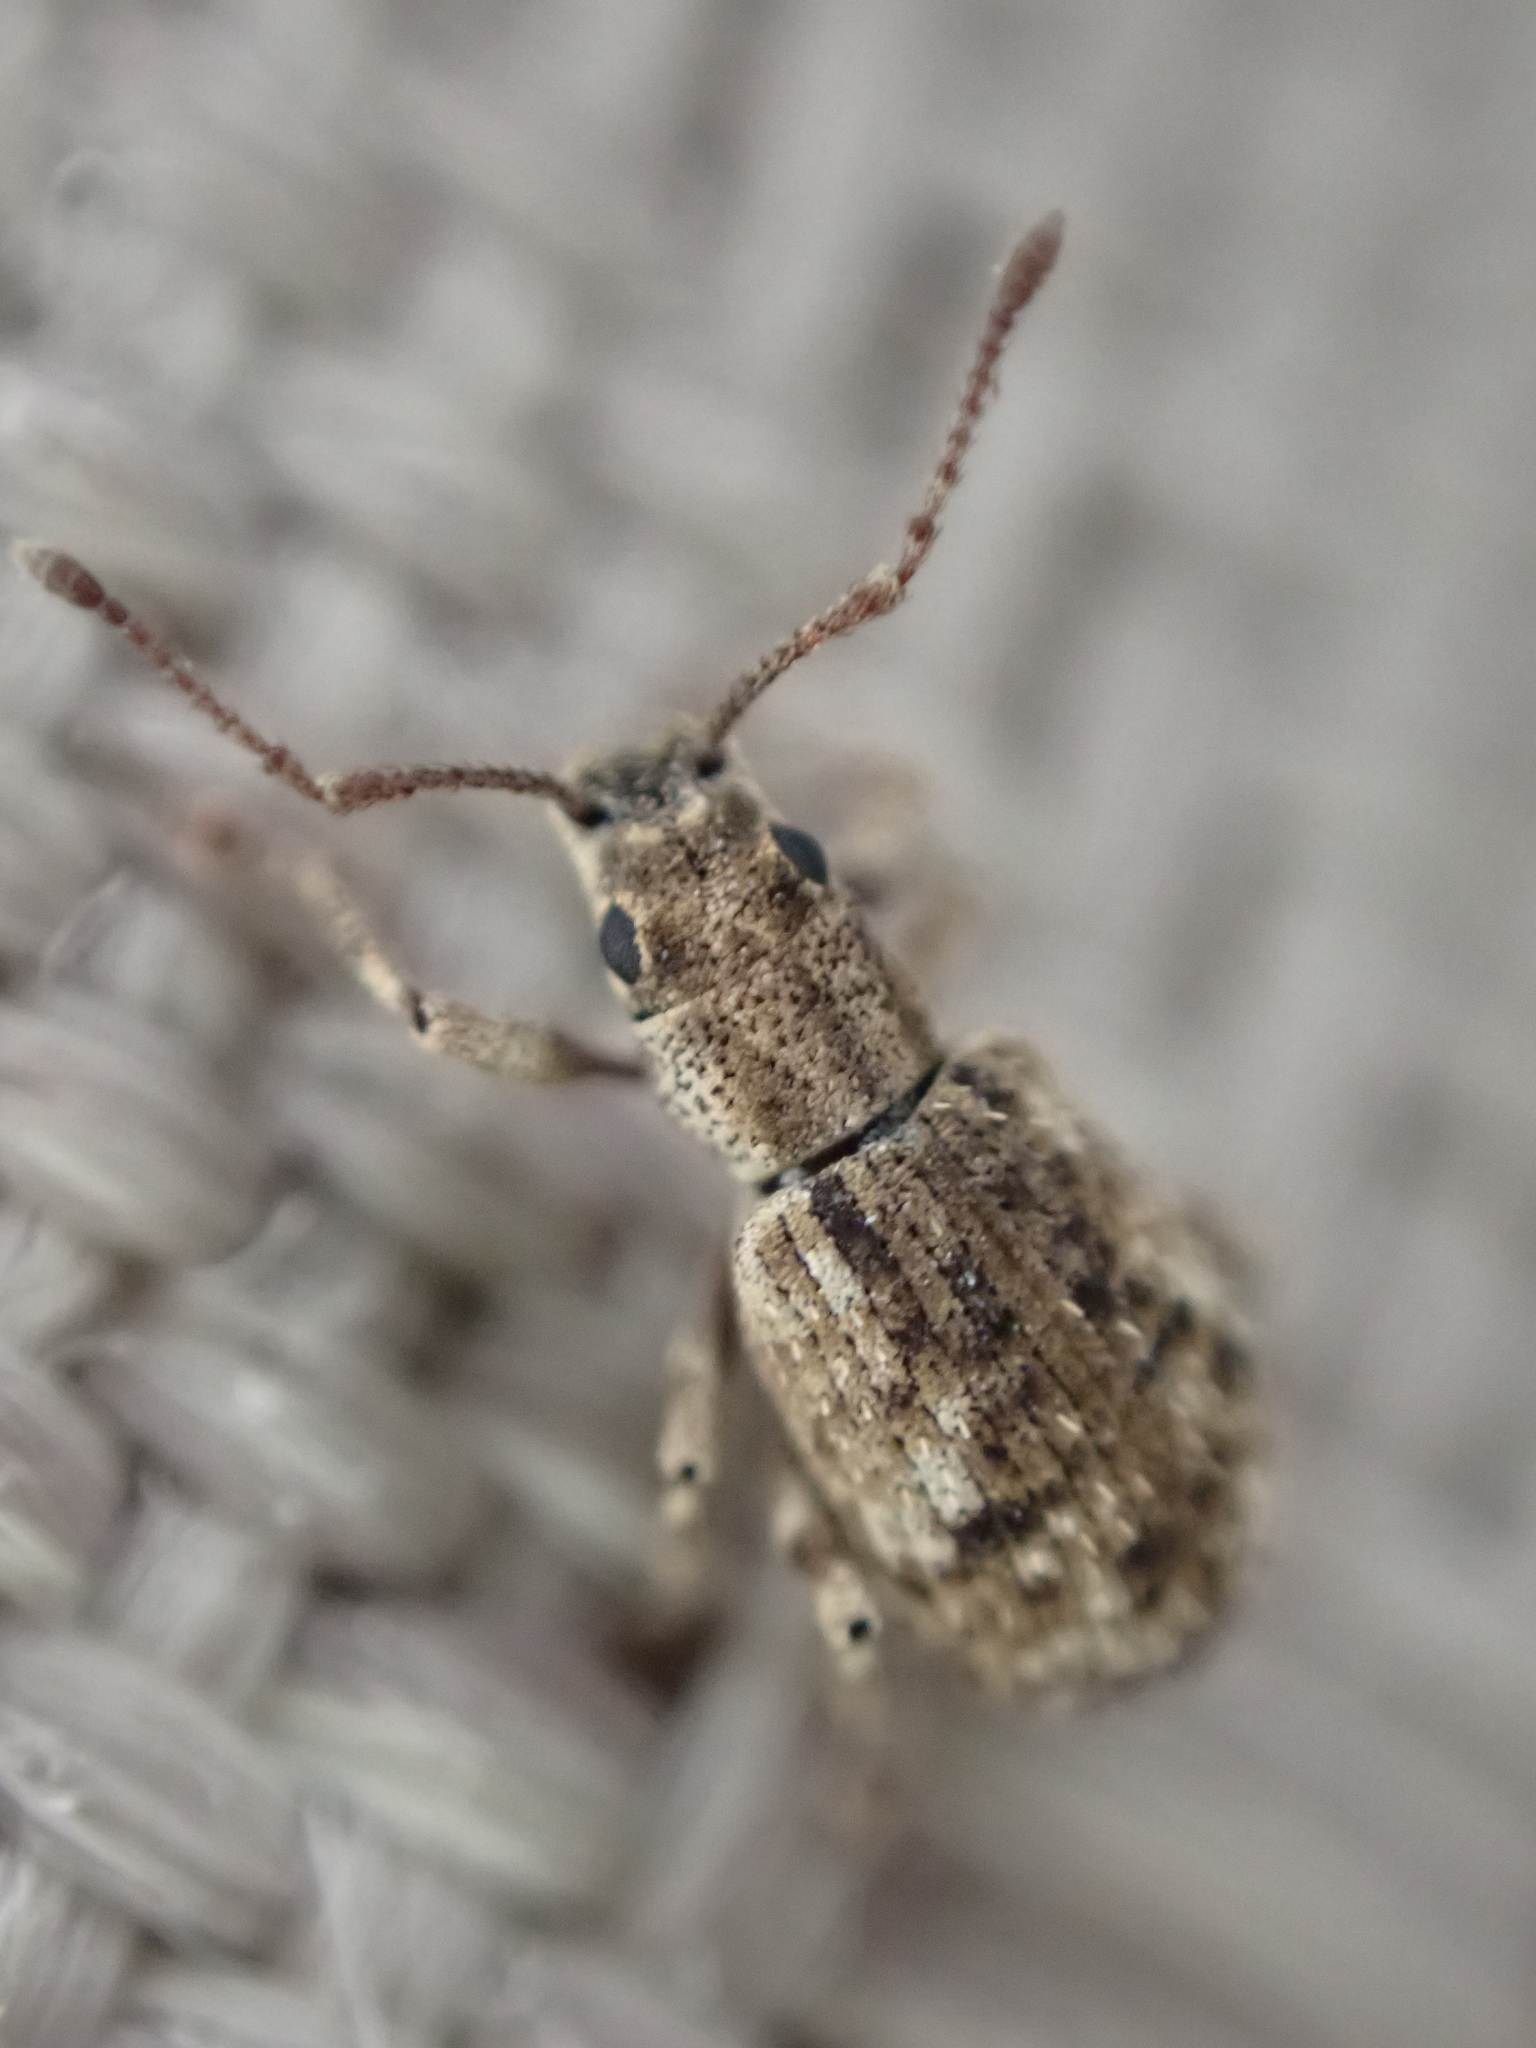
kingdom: Animalia
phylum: Arthropoda
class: Insecta
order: Coleoptera
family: Curculionidae
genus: Pseudoedophrys
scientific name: Pseudoedophrys hilleri
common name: Weevil
